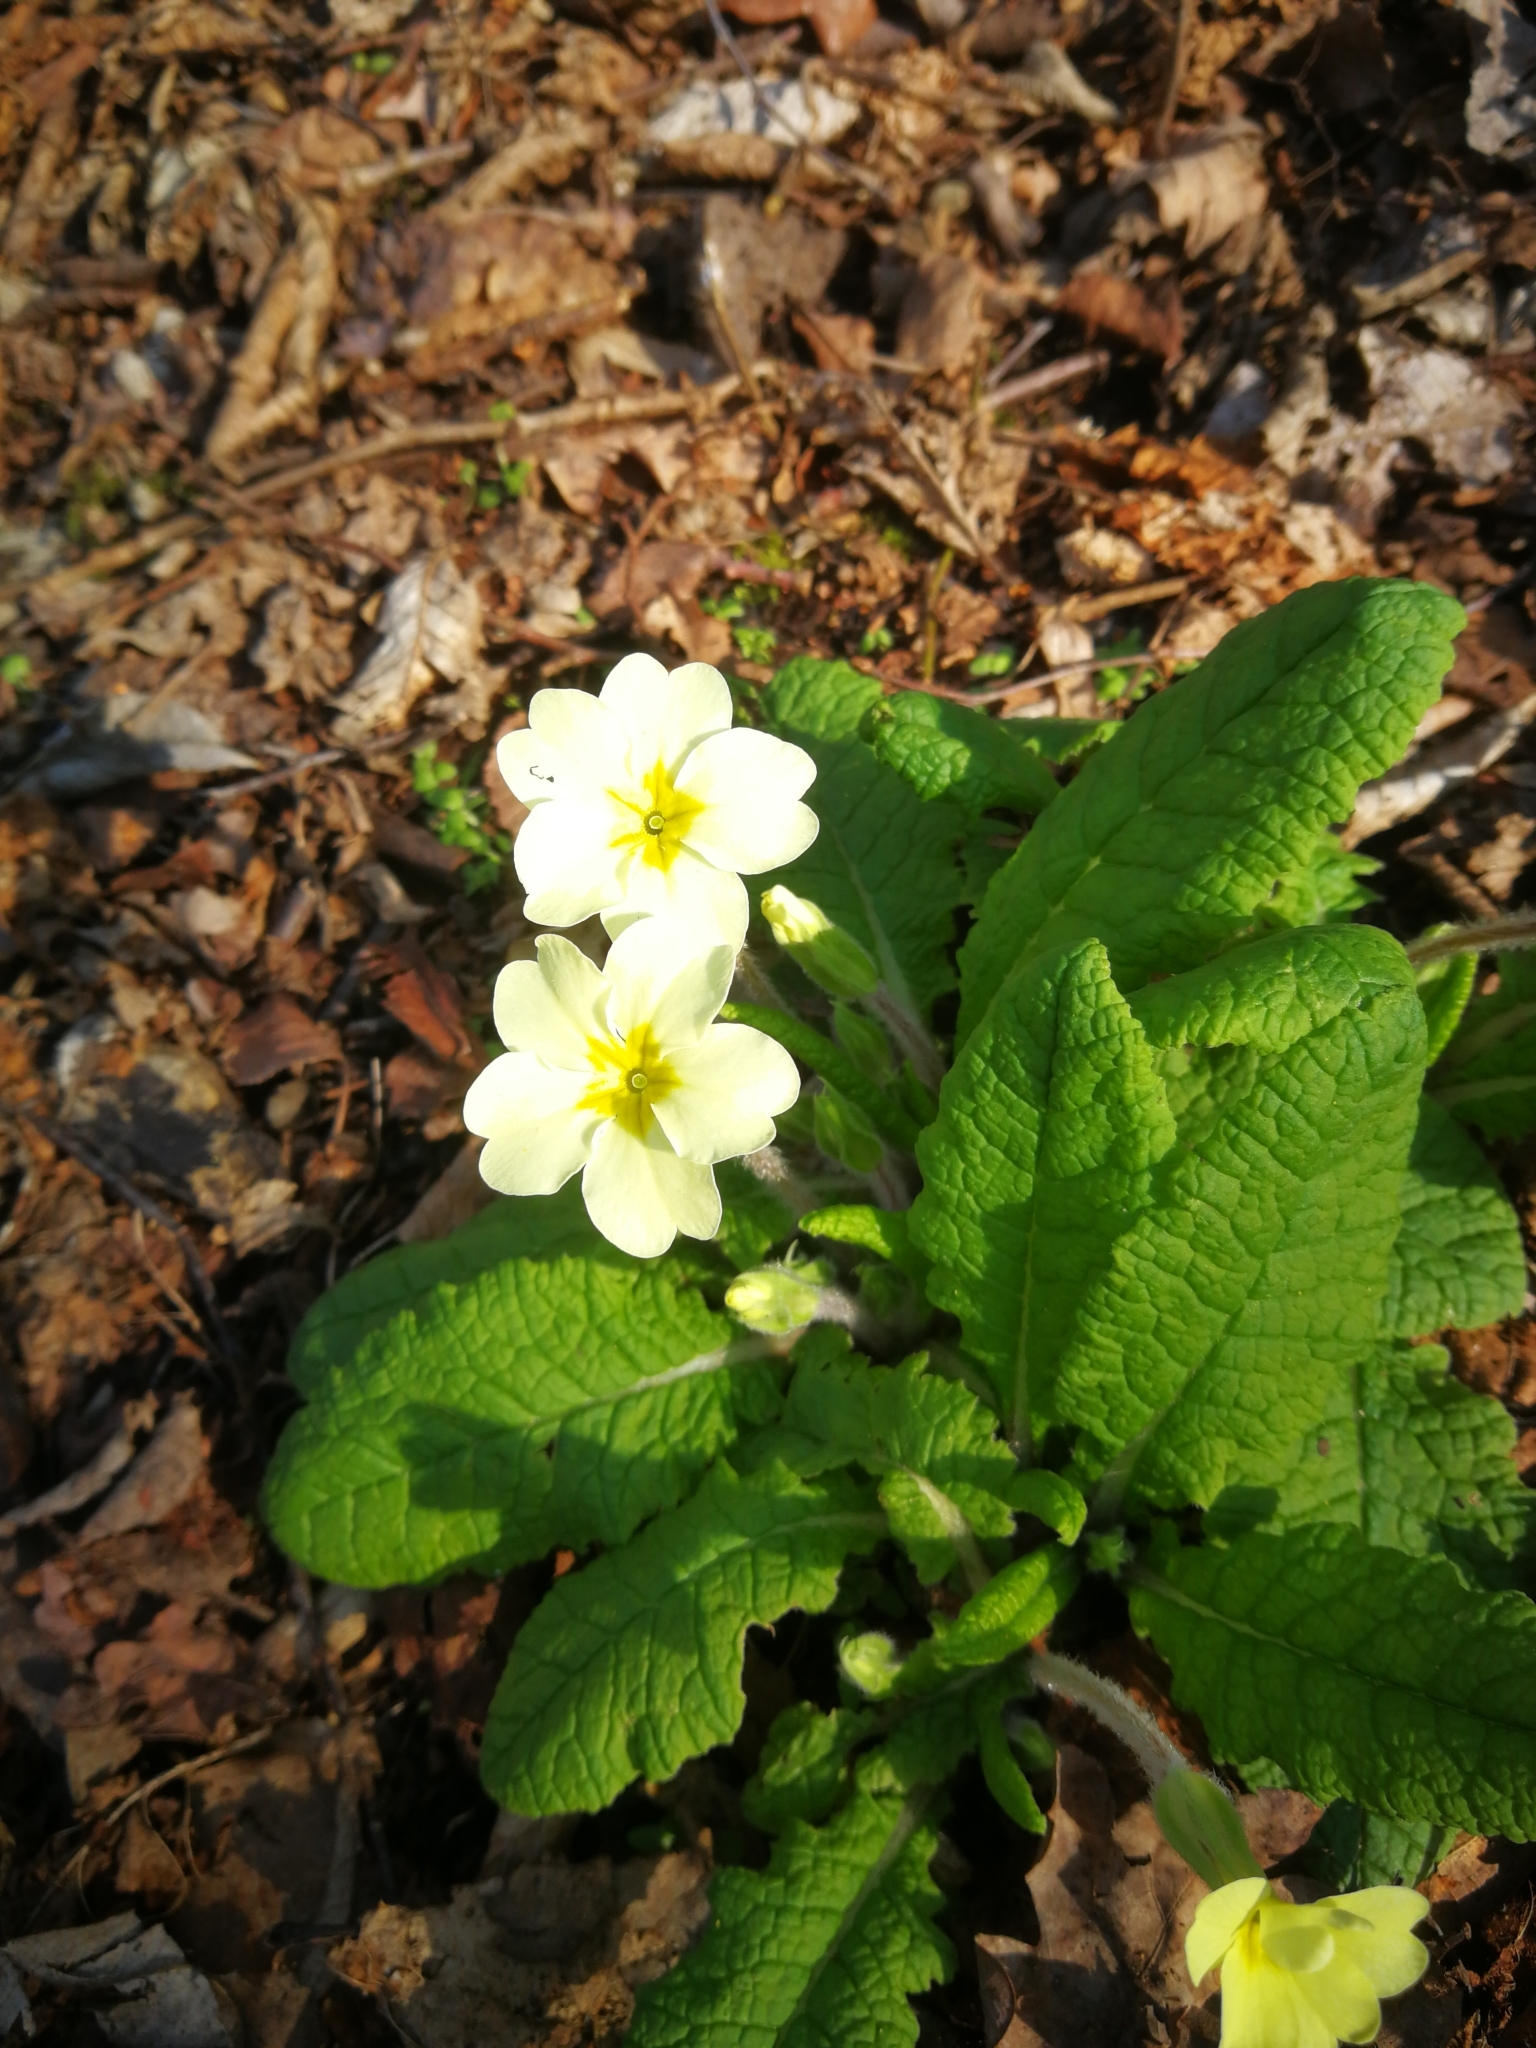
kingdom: Plantae
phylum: Tracheophyta
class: Magnoliopsida
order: Ericales
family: Primulaceae
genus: Primula
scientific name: Primula vulgaris
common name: Primrose
